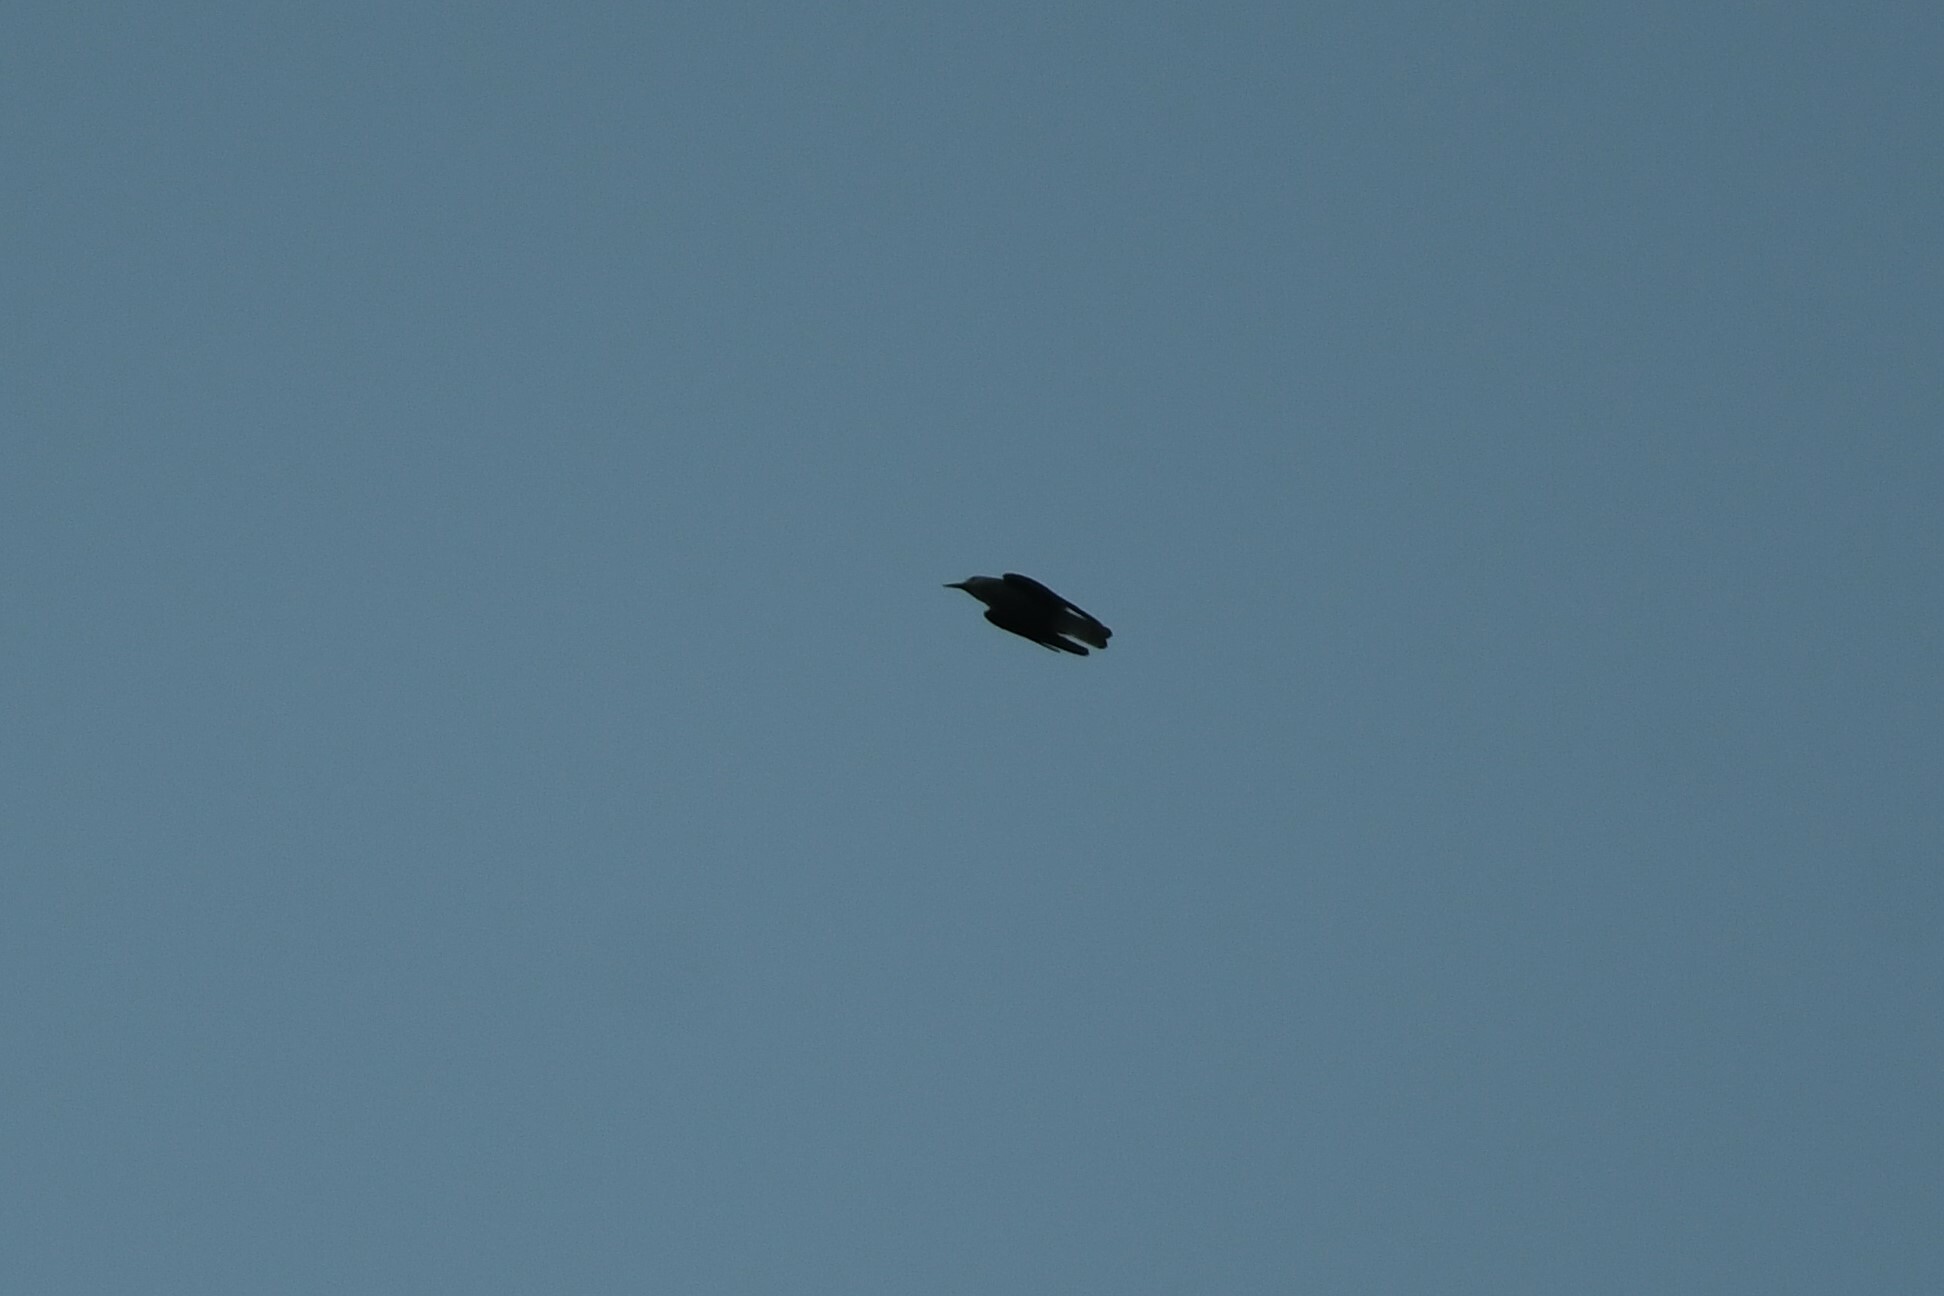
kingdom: Animalia
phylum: Chordata
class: Aves
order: Passeriformes
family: Corvidae
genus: Nucifraga
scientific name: Nucifraga columbiana
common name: Clark's nutcracker
